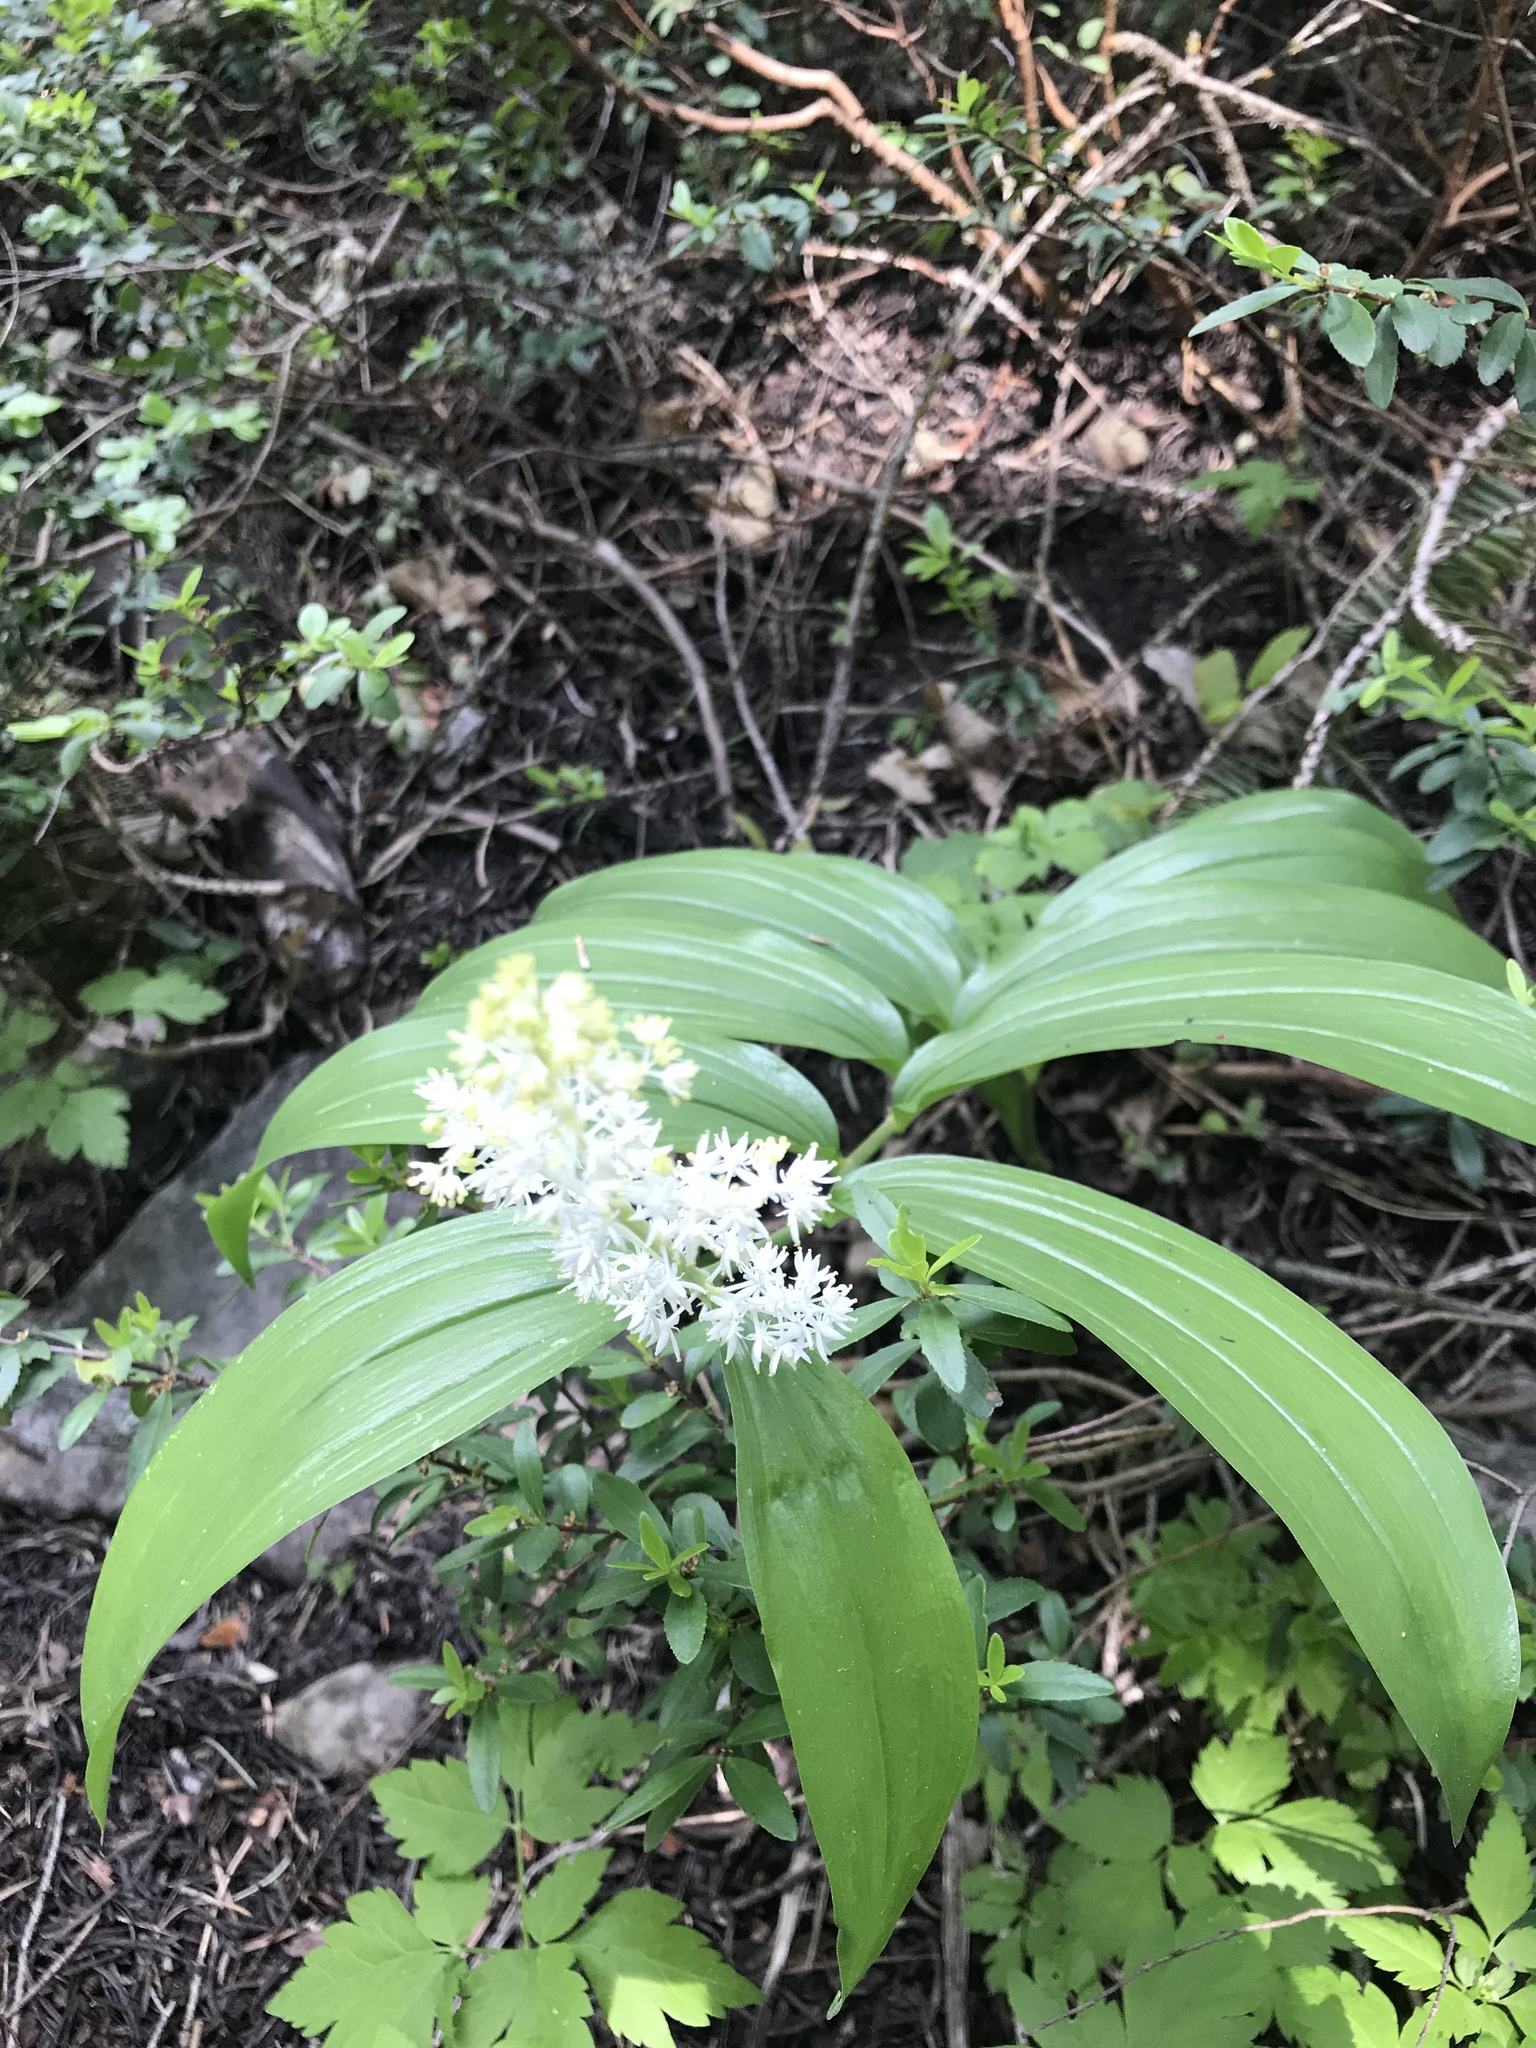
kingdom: Plantae
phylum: Tracheophyta
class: Liliopsida
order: Asparagales
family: Asparagaceae
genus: Maianthemum
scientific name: Maianthemum racemosum
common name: False spikenard
